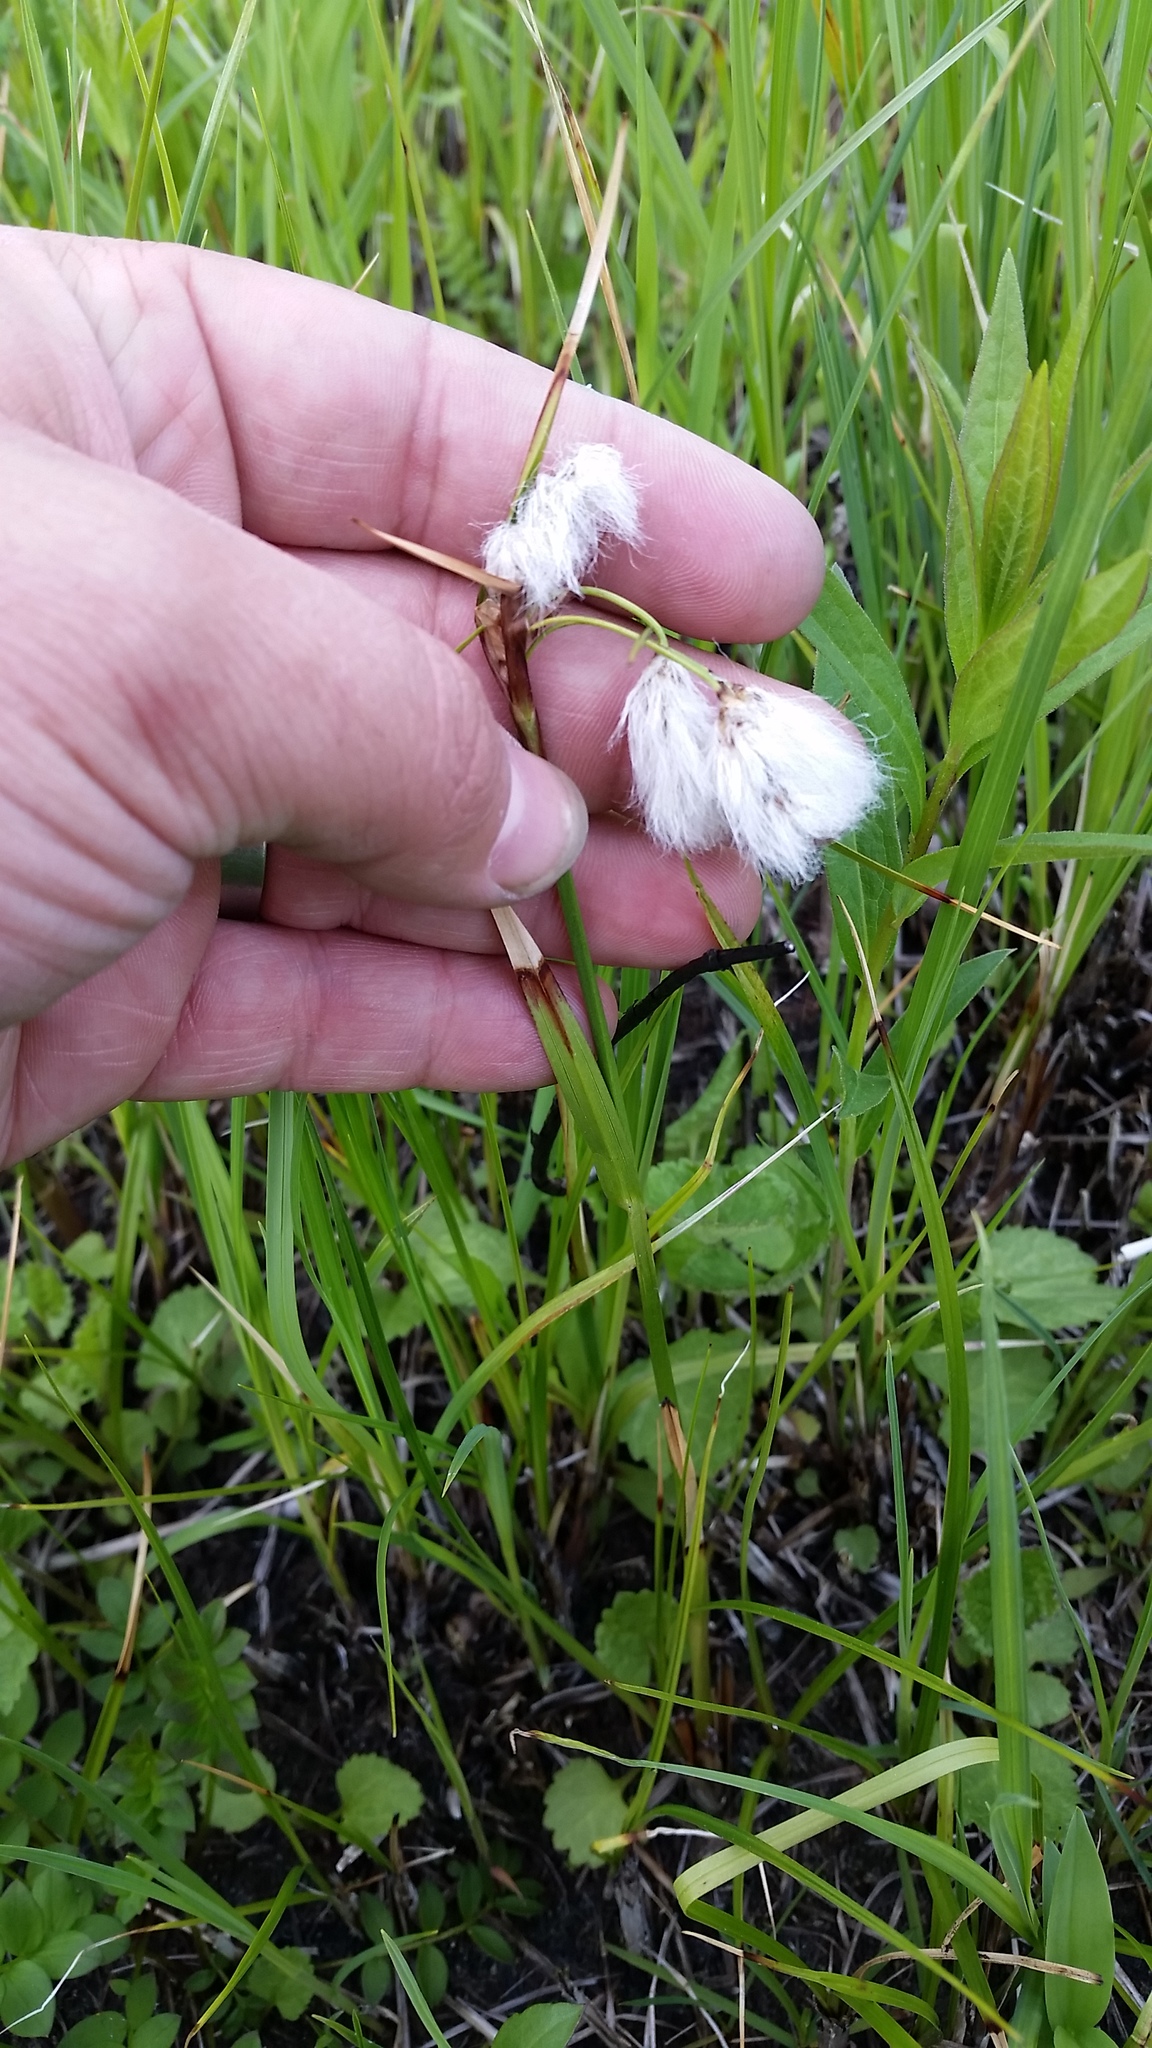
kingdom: Plantae
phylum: Tracheophyta
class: Liliopsida
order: Poales
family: Cyperaceae
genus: Eriophorum
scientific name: Eriophorum angustifolium
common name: Common cottongrass
